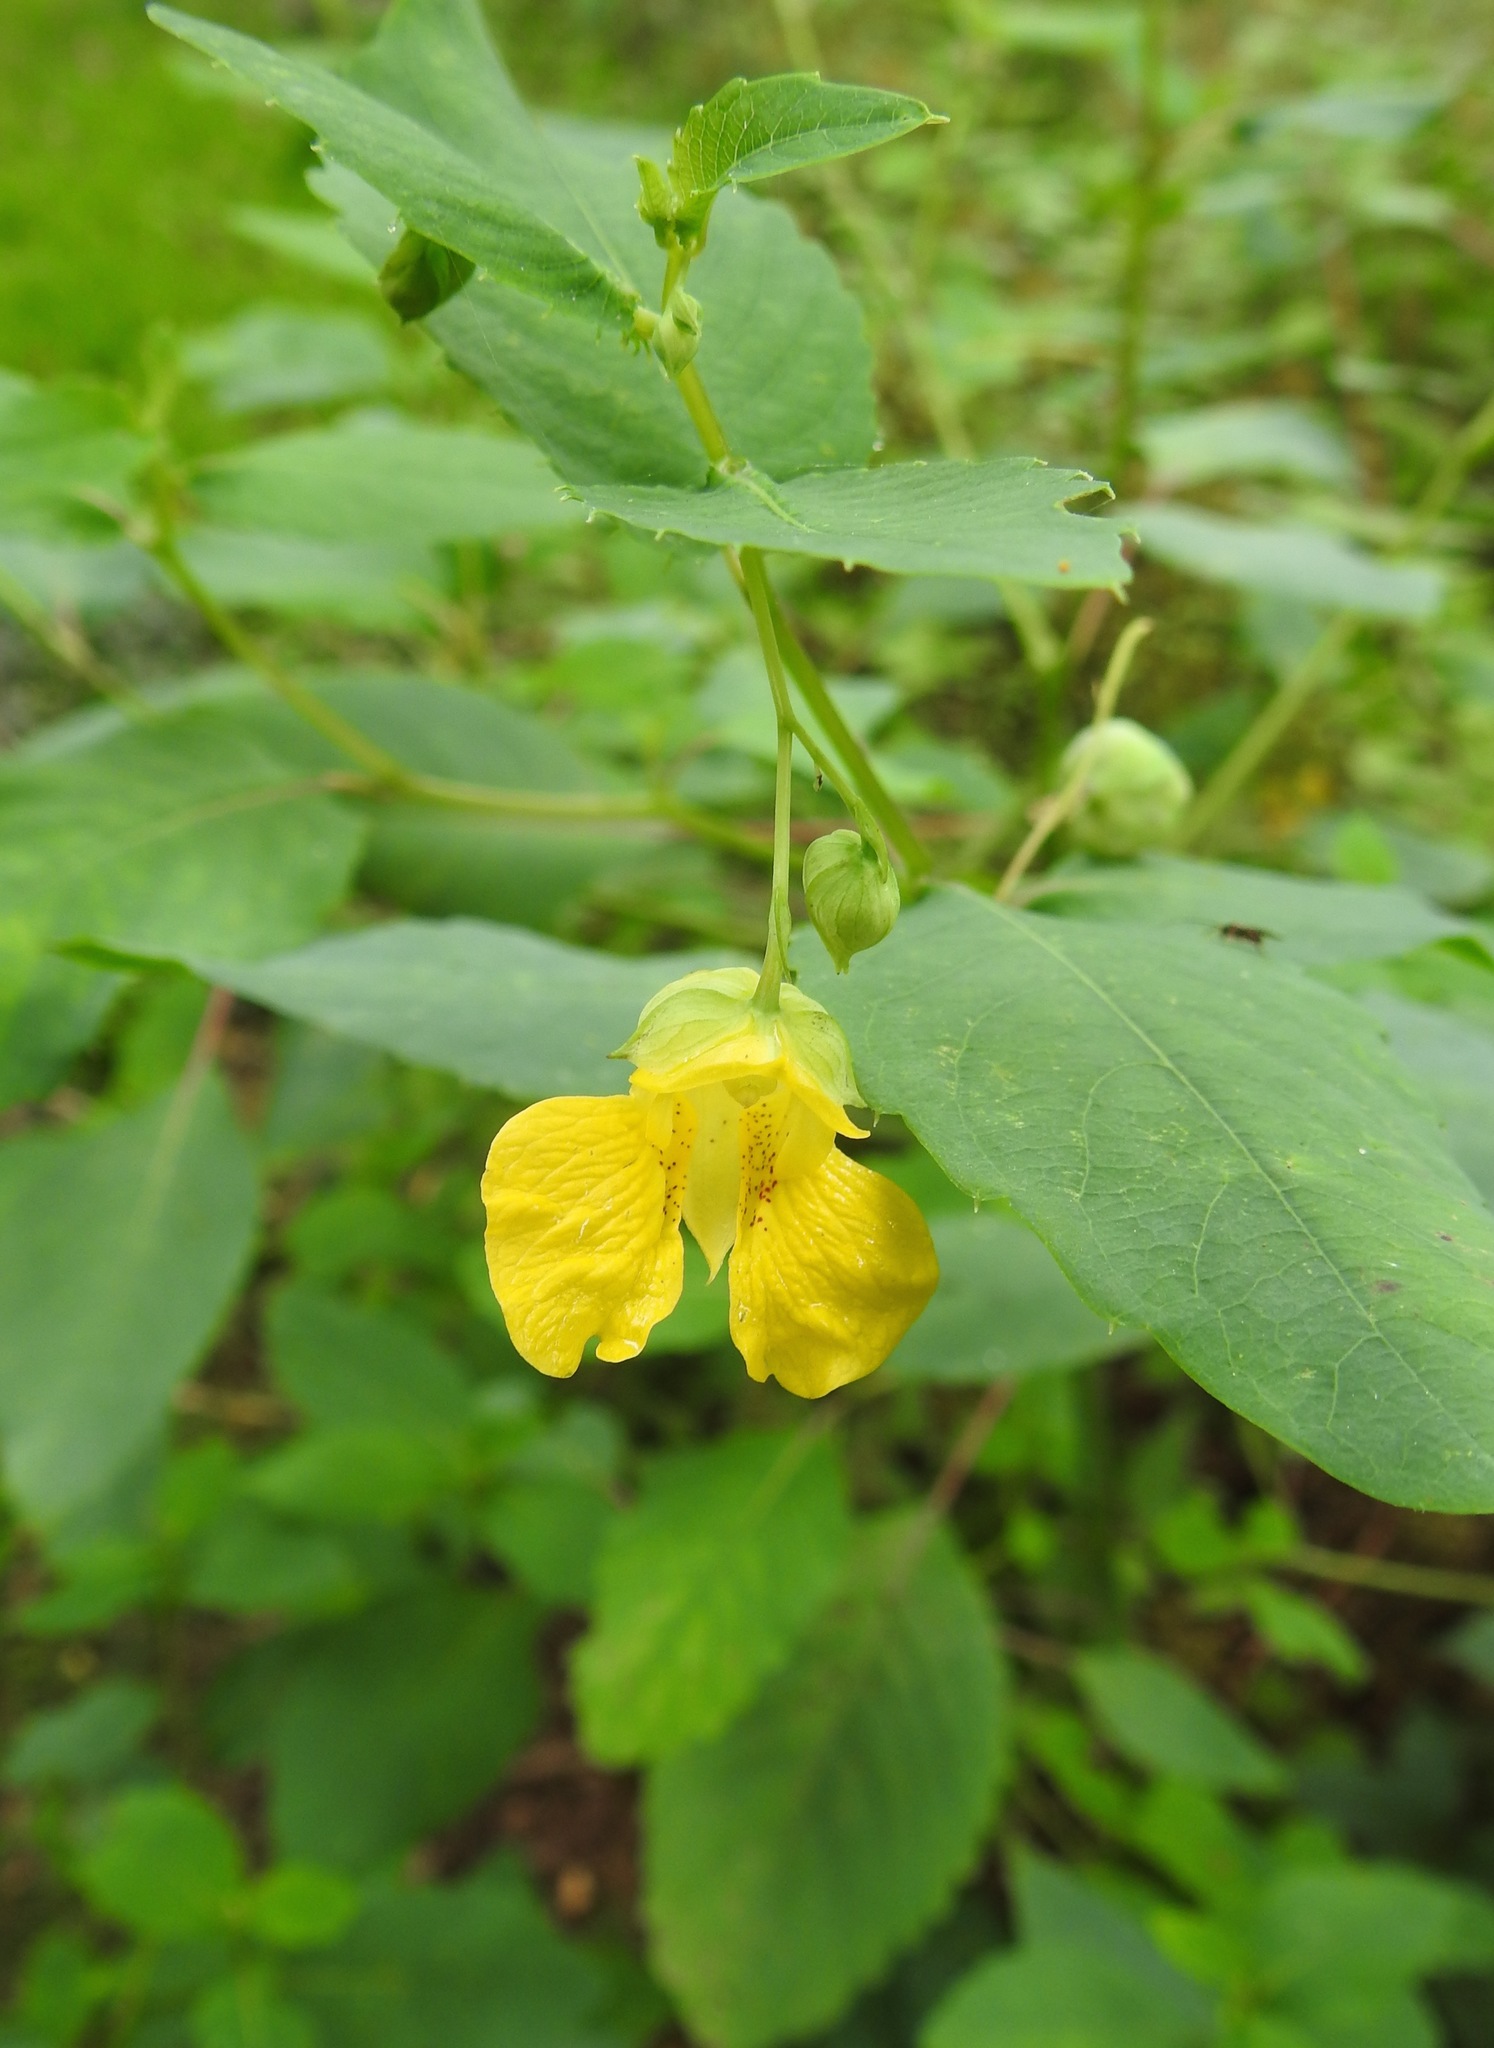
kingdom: Plantae
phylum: Tracheophyta
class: Magnoliopsida
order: Ericales
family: Balsaminaceae
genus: Impatiens
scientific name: Impatiens pallida
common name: Pale snapweed
